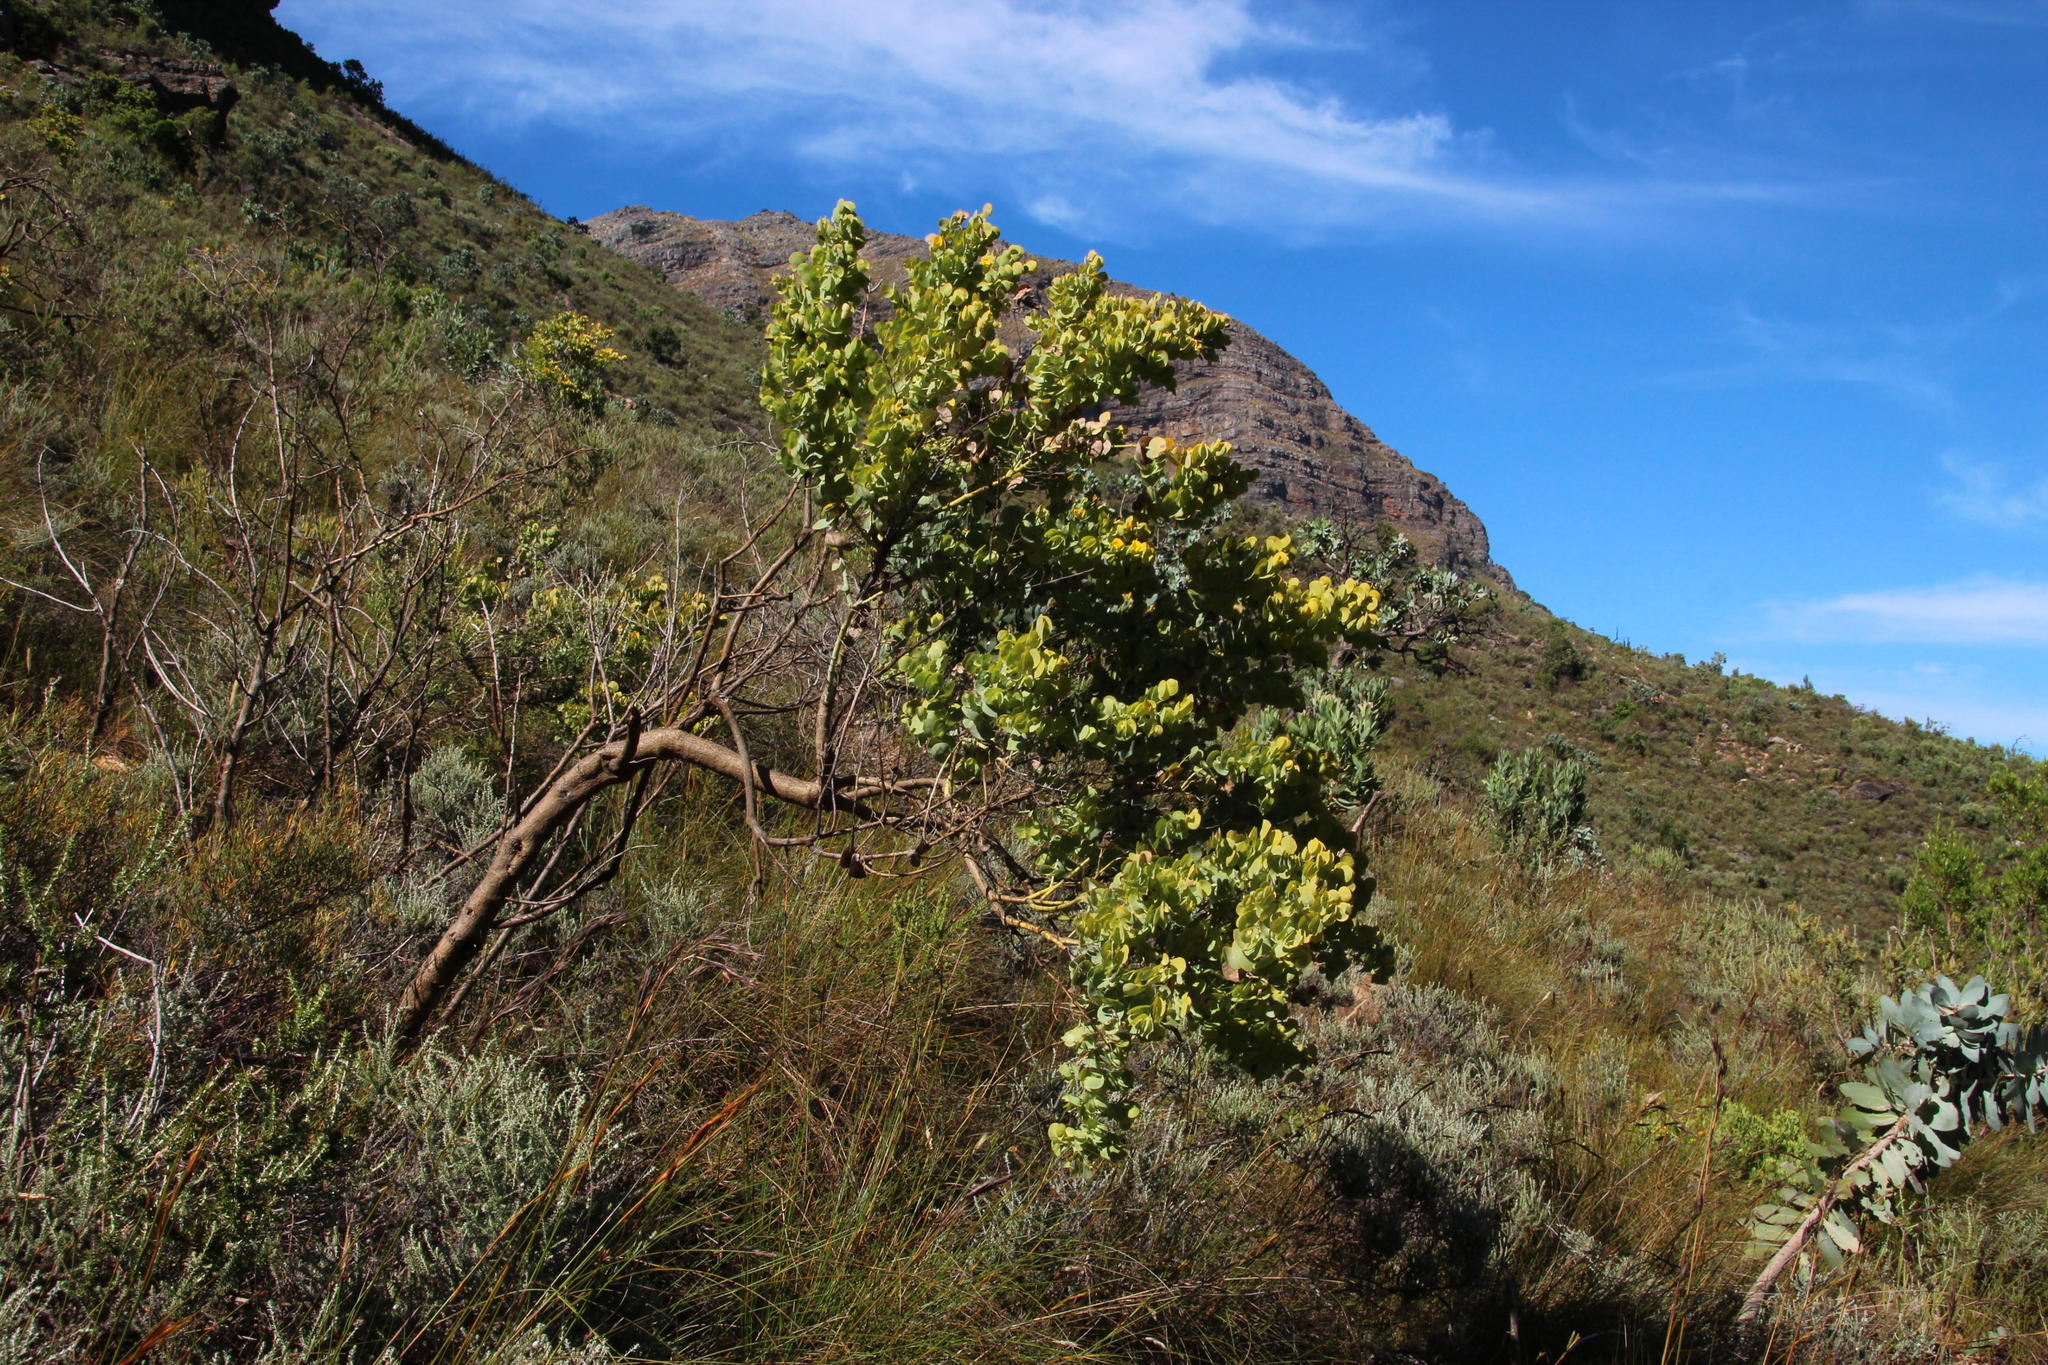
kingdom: Plantae
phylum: Tracheophyta
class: Magnoliopsida
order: Fabales
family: Fabaceae
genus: Rafnia
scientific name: Rafnia amplexicaulis
